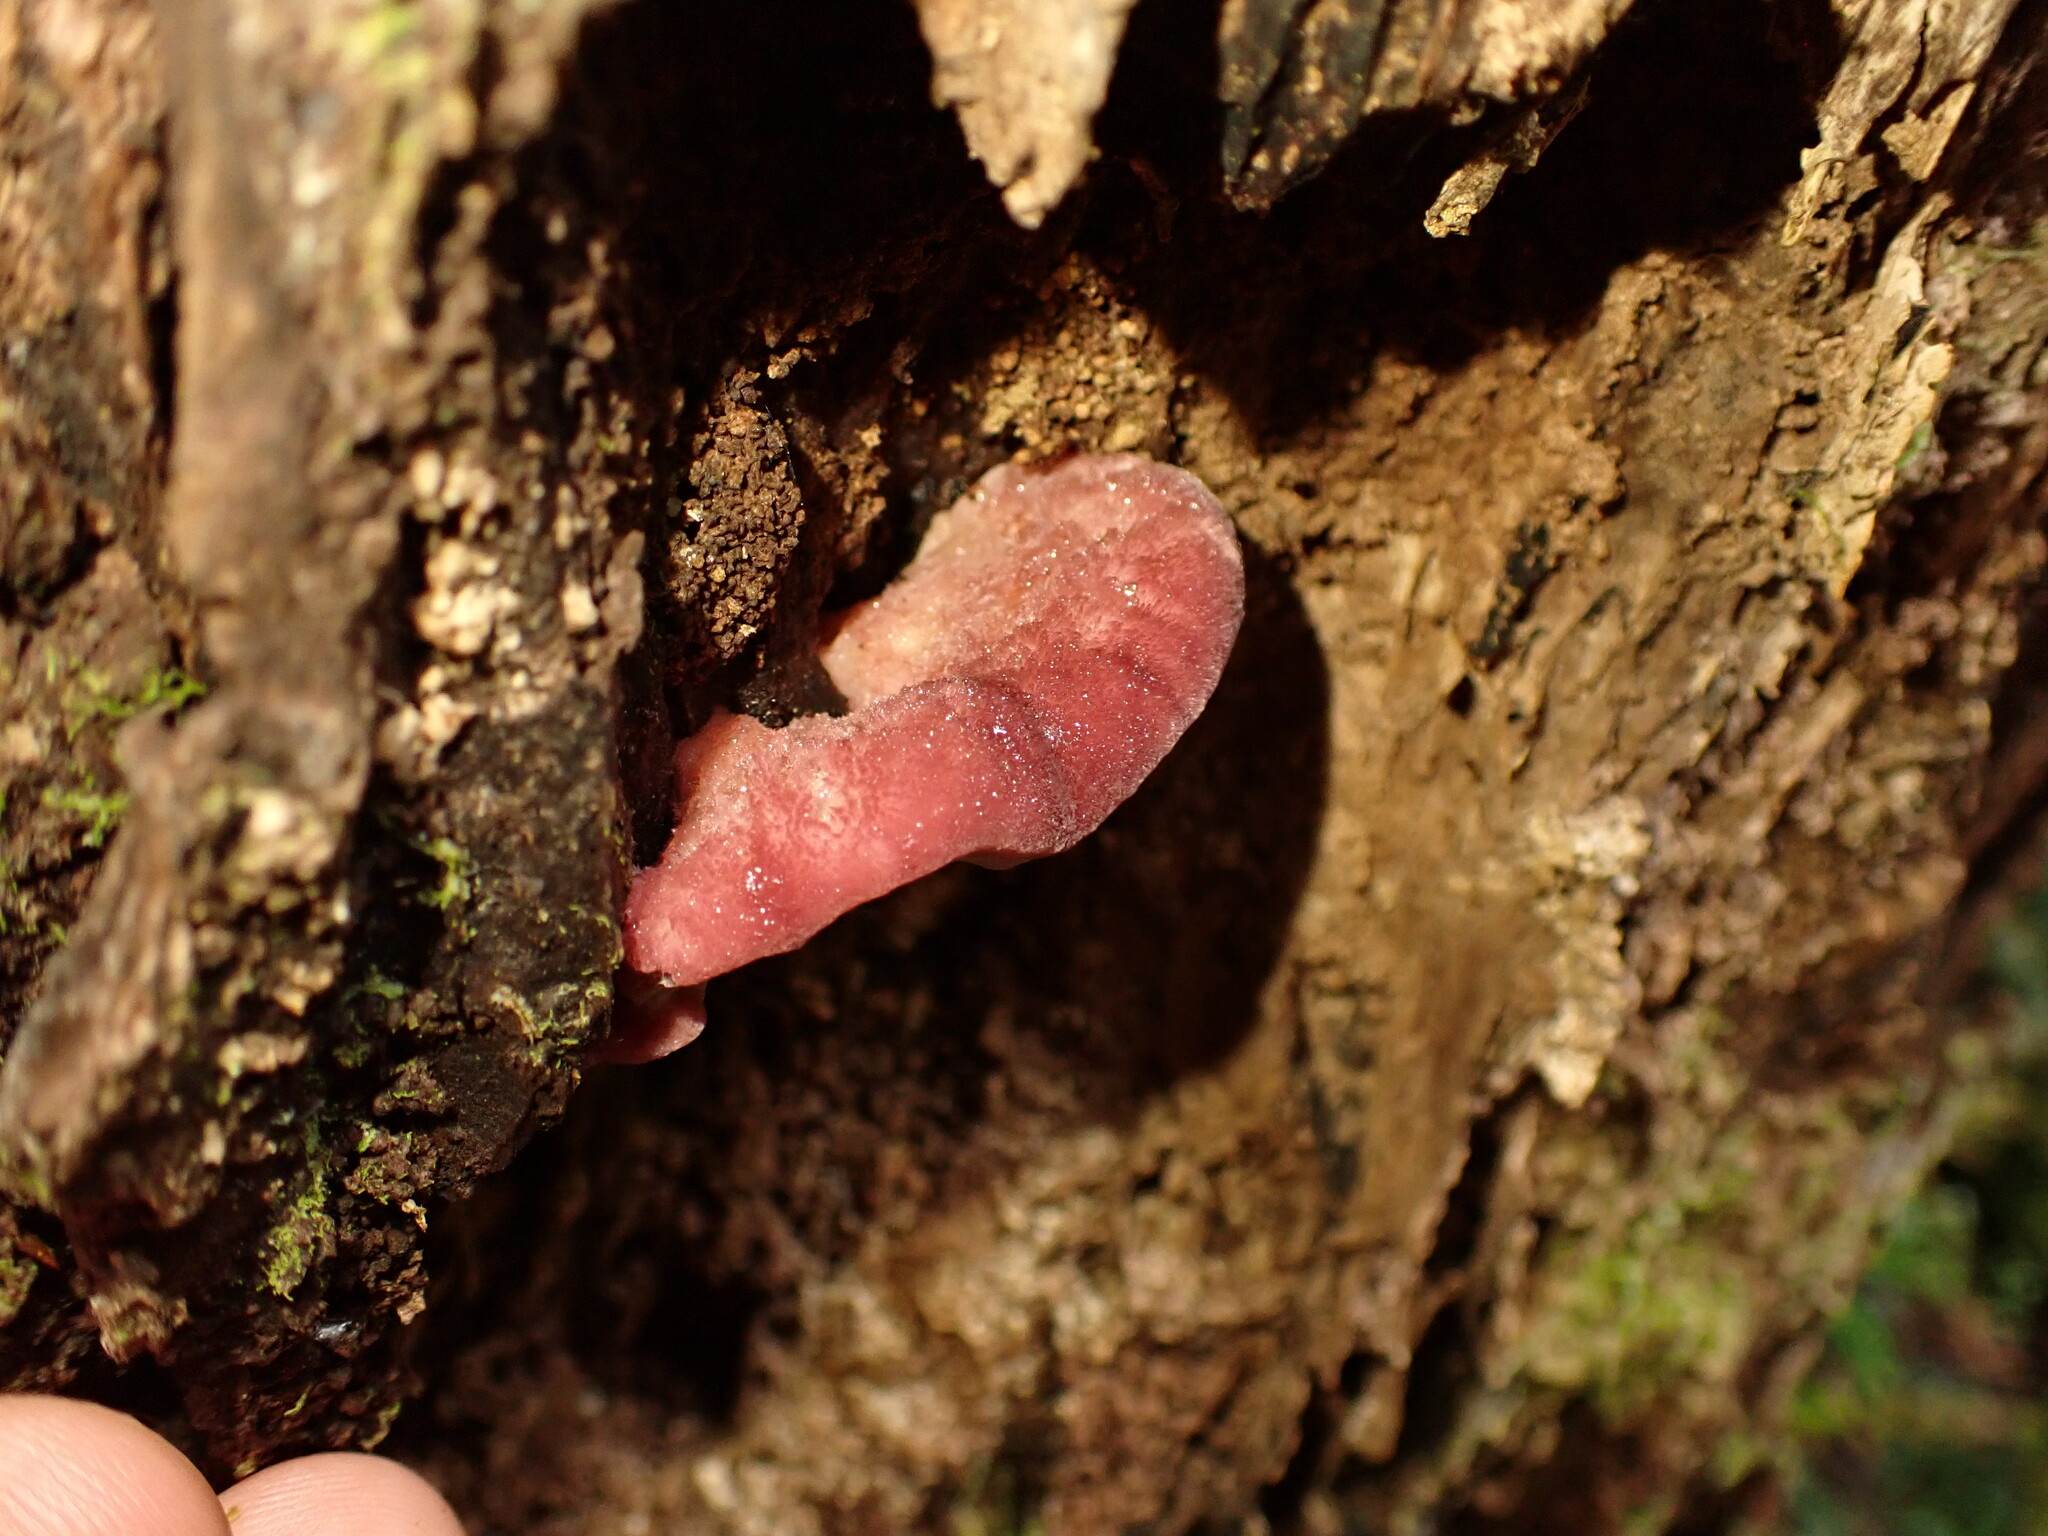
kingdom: Fungi
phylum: Basidiomycota
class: Agaricomycetes
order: Polyporales
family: Incrustoporiaceae
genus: Tyromyces
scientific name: Tyromyces pulcherrimus
